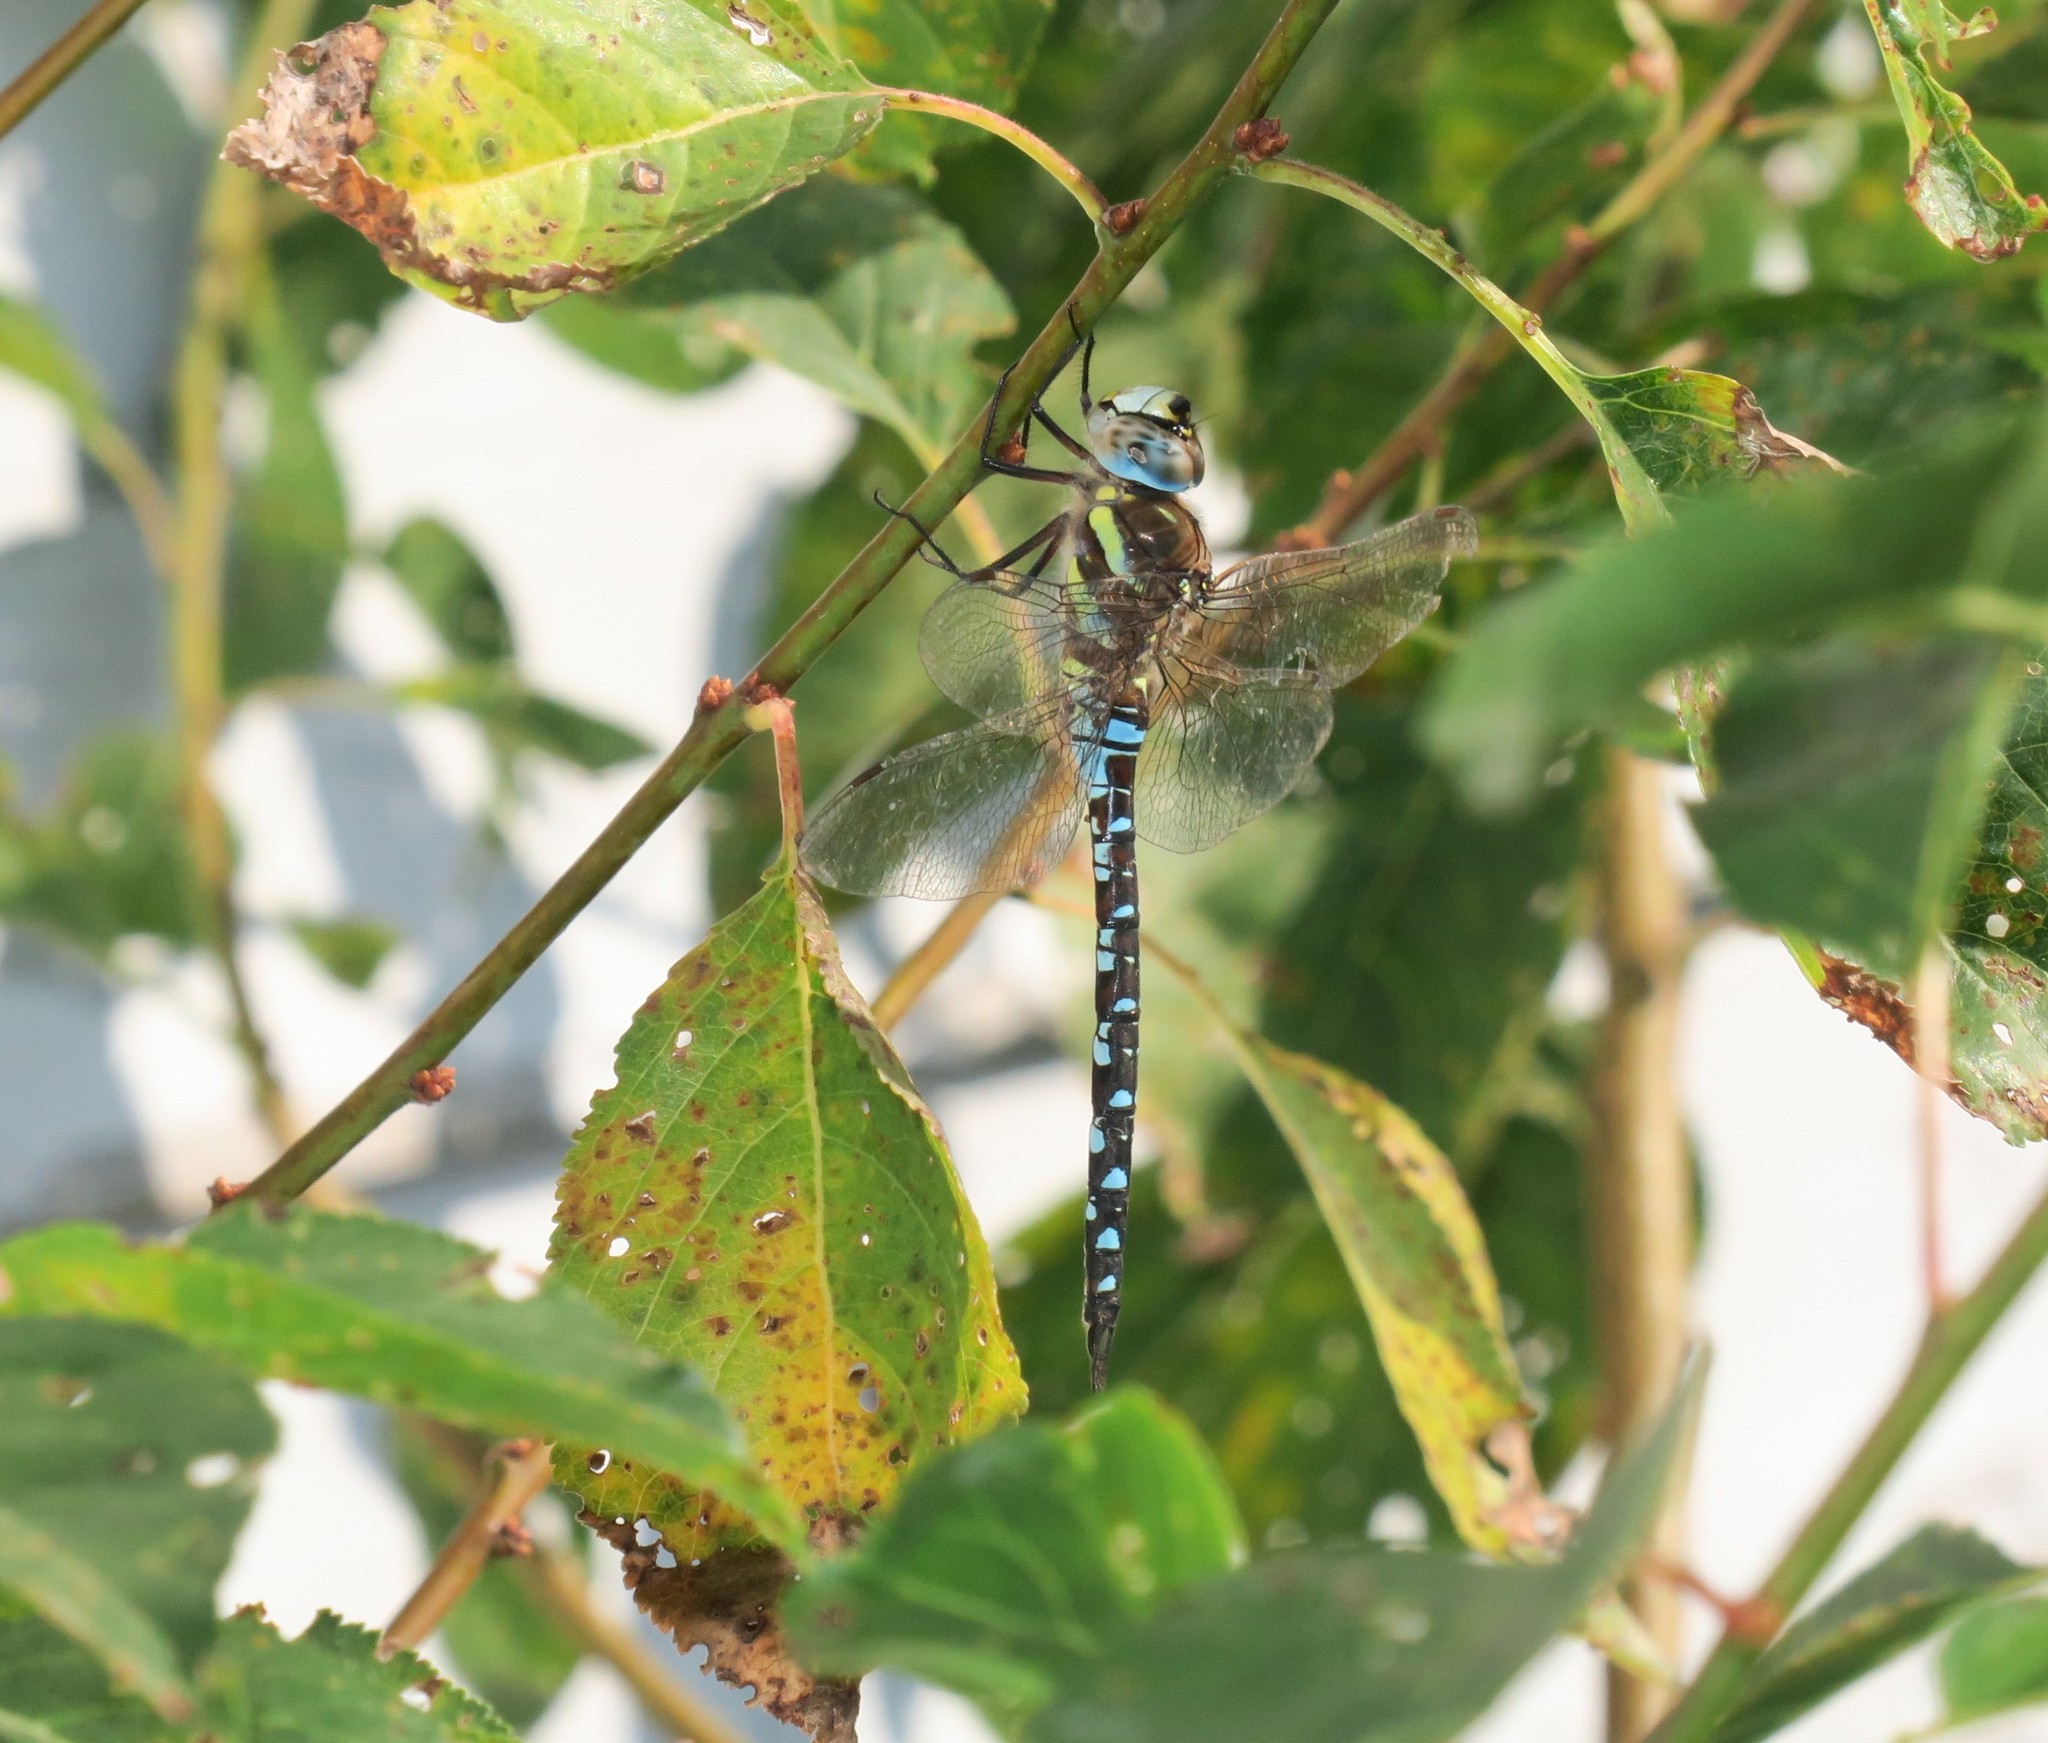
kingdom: Animalia
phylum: Arthropoda
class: Insecta
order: Odonata
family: Aeshnidae
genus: Aeshna
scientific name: Aeshna mixta
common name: Migrant hawker
